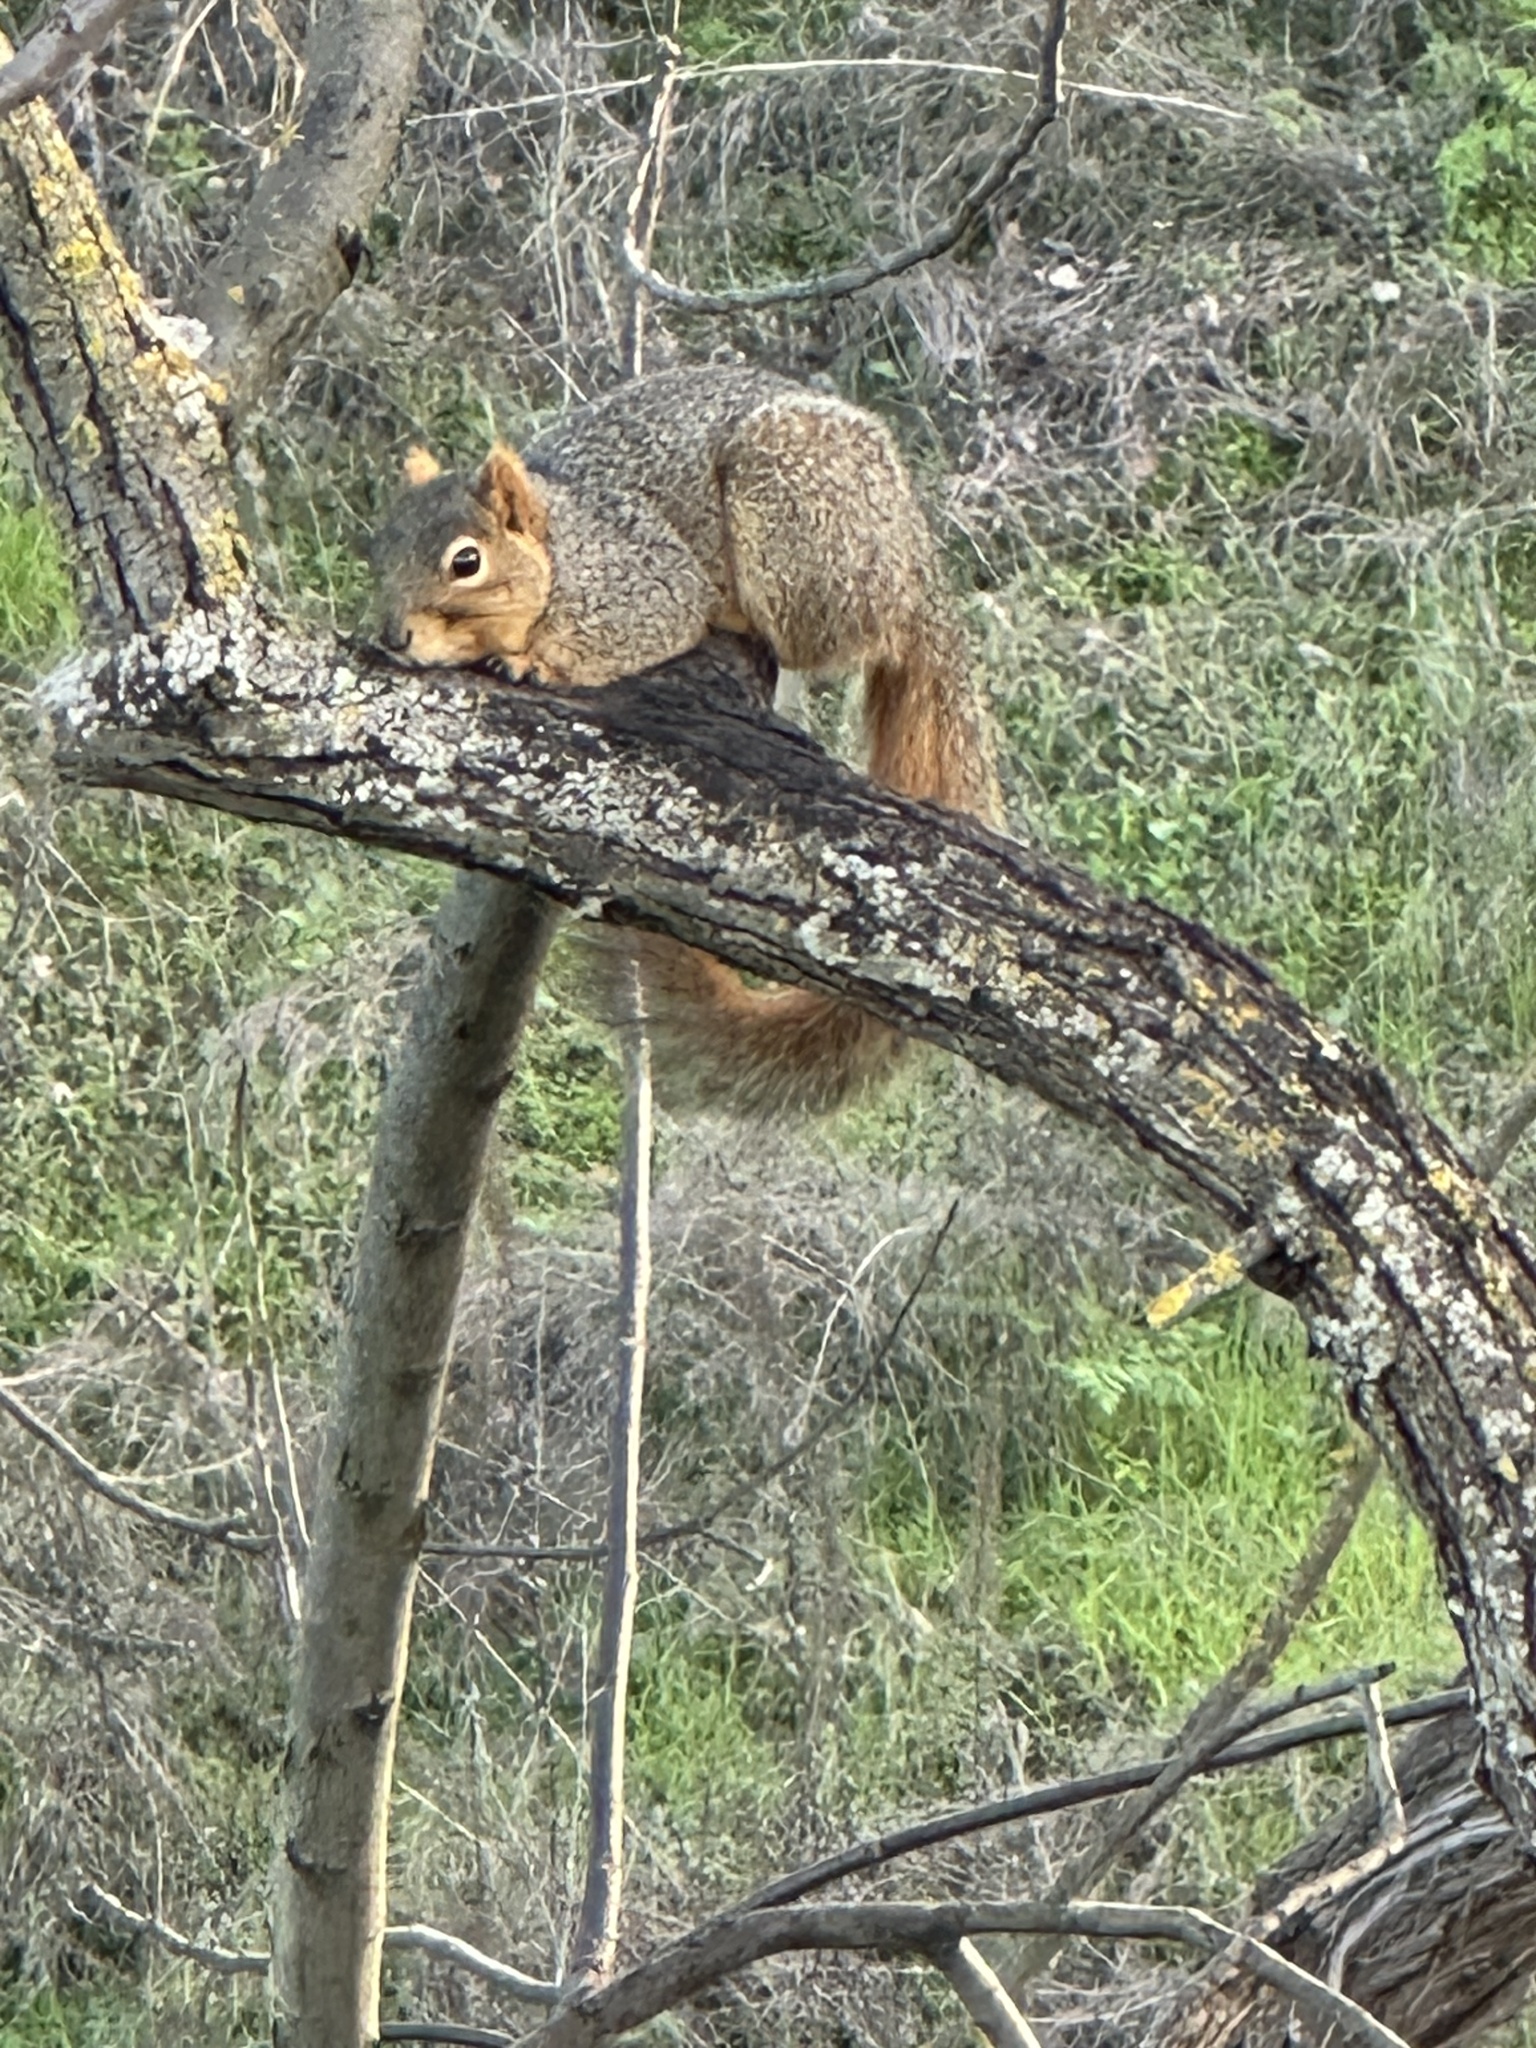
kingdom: Animalia
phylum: Chordata
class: Mammalia
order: Rodentia
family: Sciuridae
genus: Sciurus
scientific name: Sciurus niger
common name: Fox squirrel
